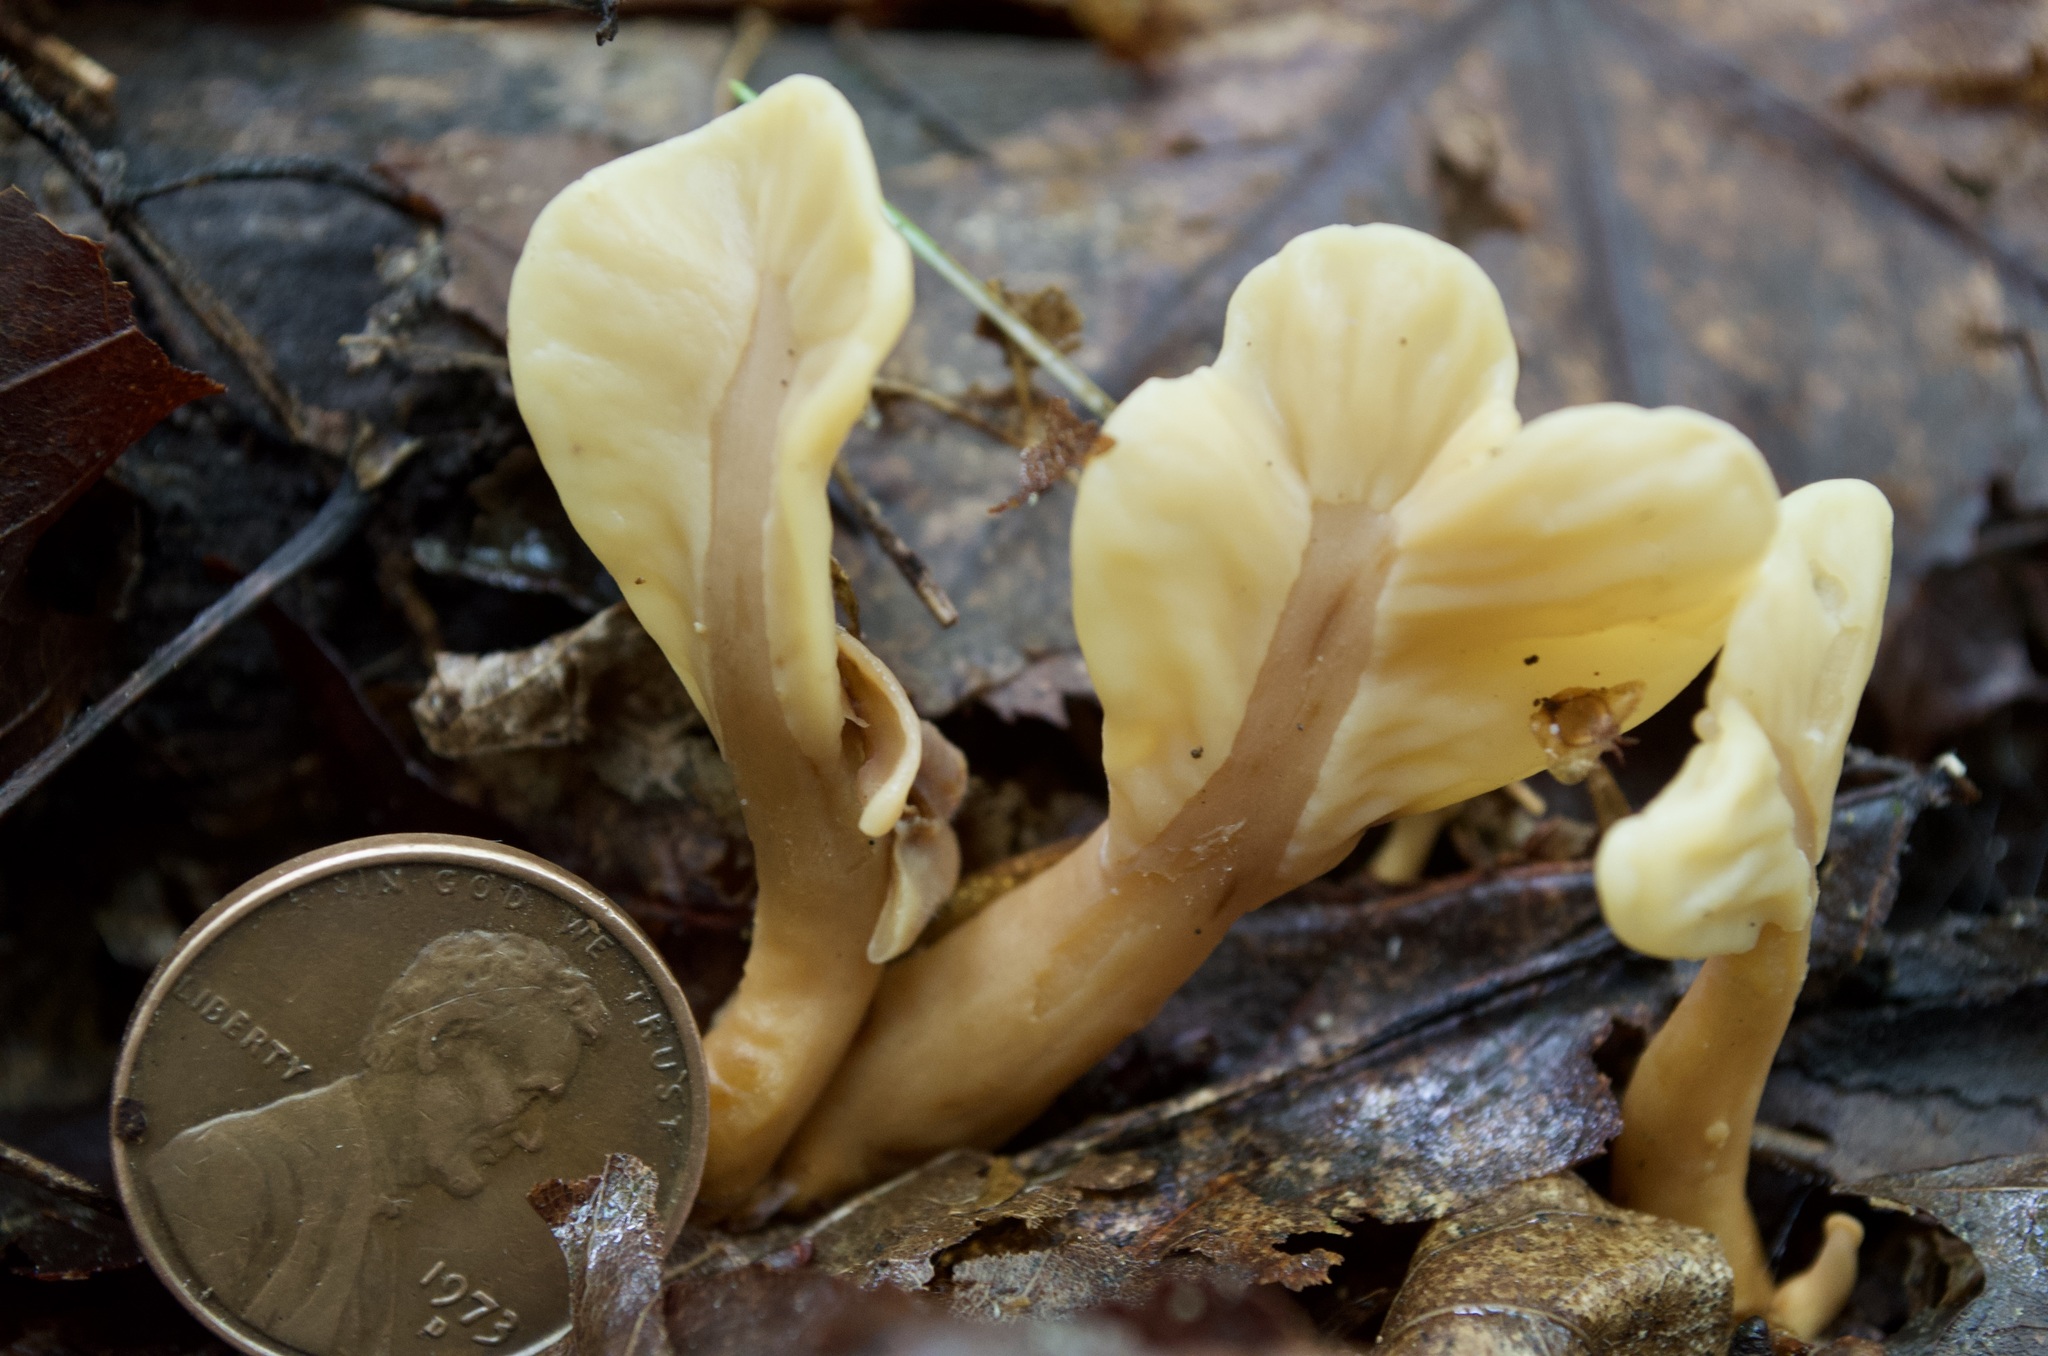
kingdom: Fungi
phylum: Ascomycota
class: Leotiomycetes
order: Rhytismatales
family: Cudoniaceae
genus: Spathulariopsis
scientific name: Spathulariopsis velutipes
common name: Velvet-foot fairy fan
